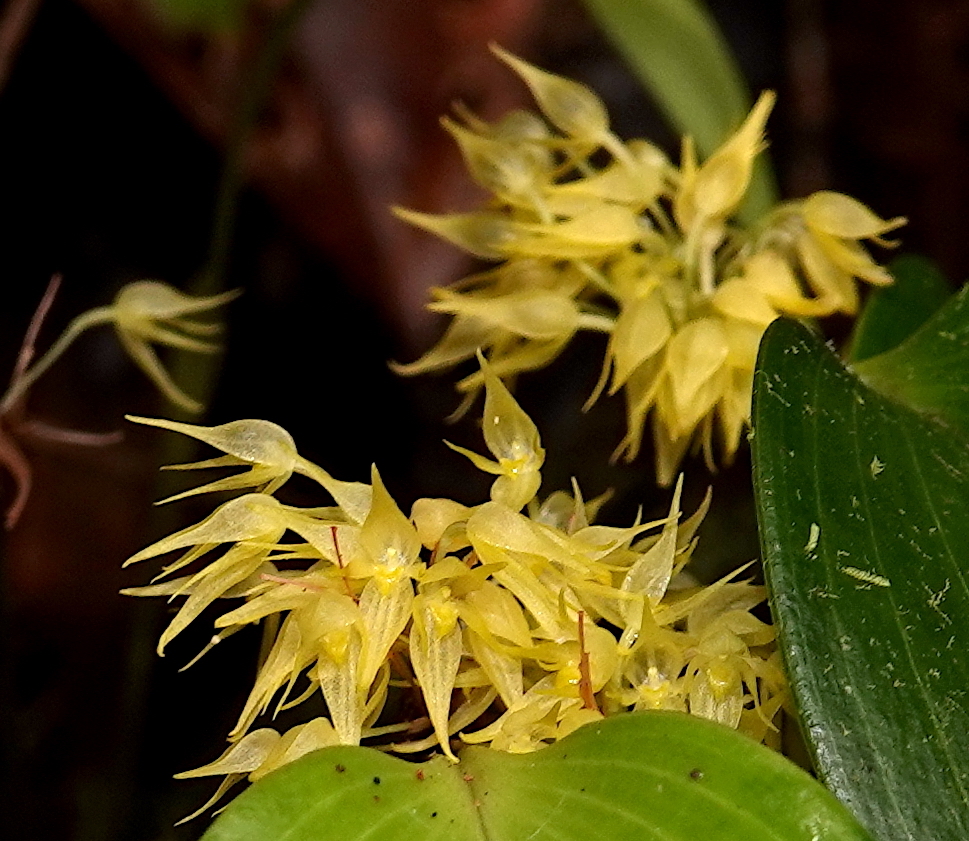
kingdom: Plantae
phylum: Tracheophyta
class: Liliopsida
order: Asparagales
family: Orchidaceae
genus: Pleurothallis
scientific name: Pleurothallis ruscifolia
